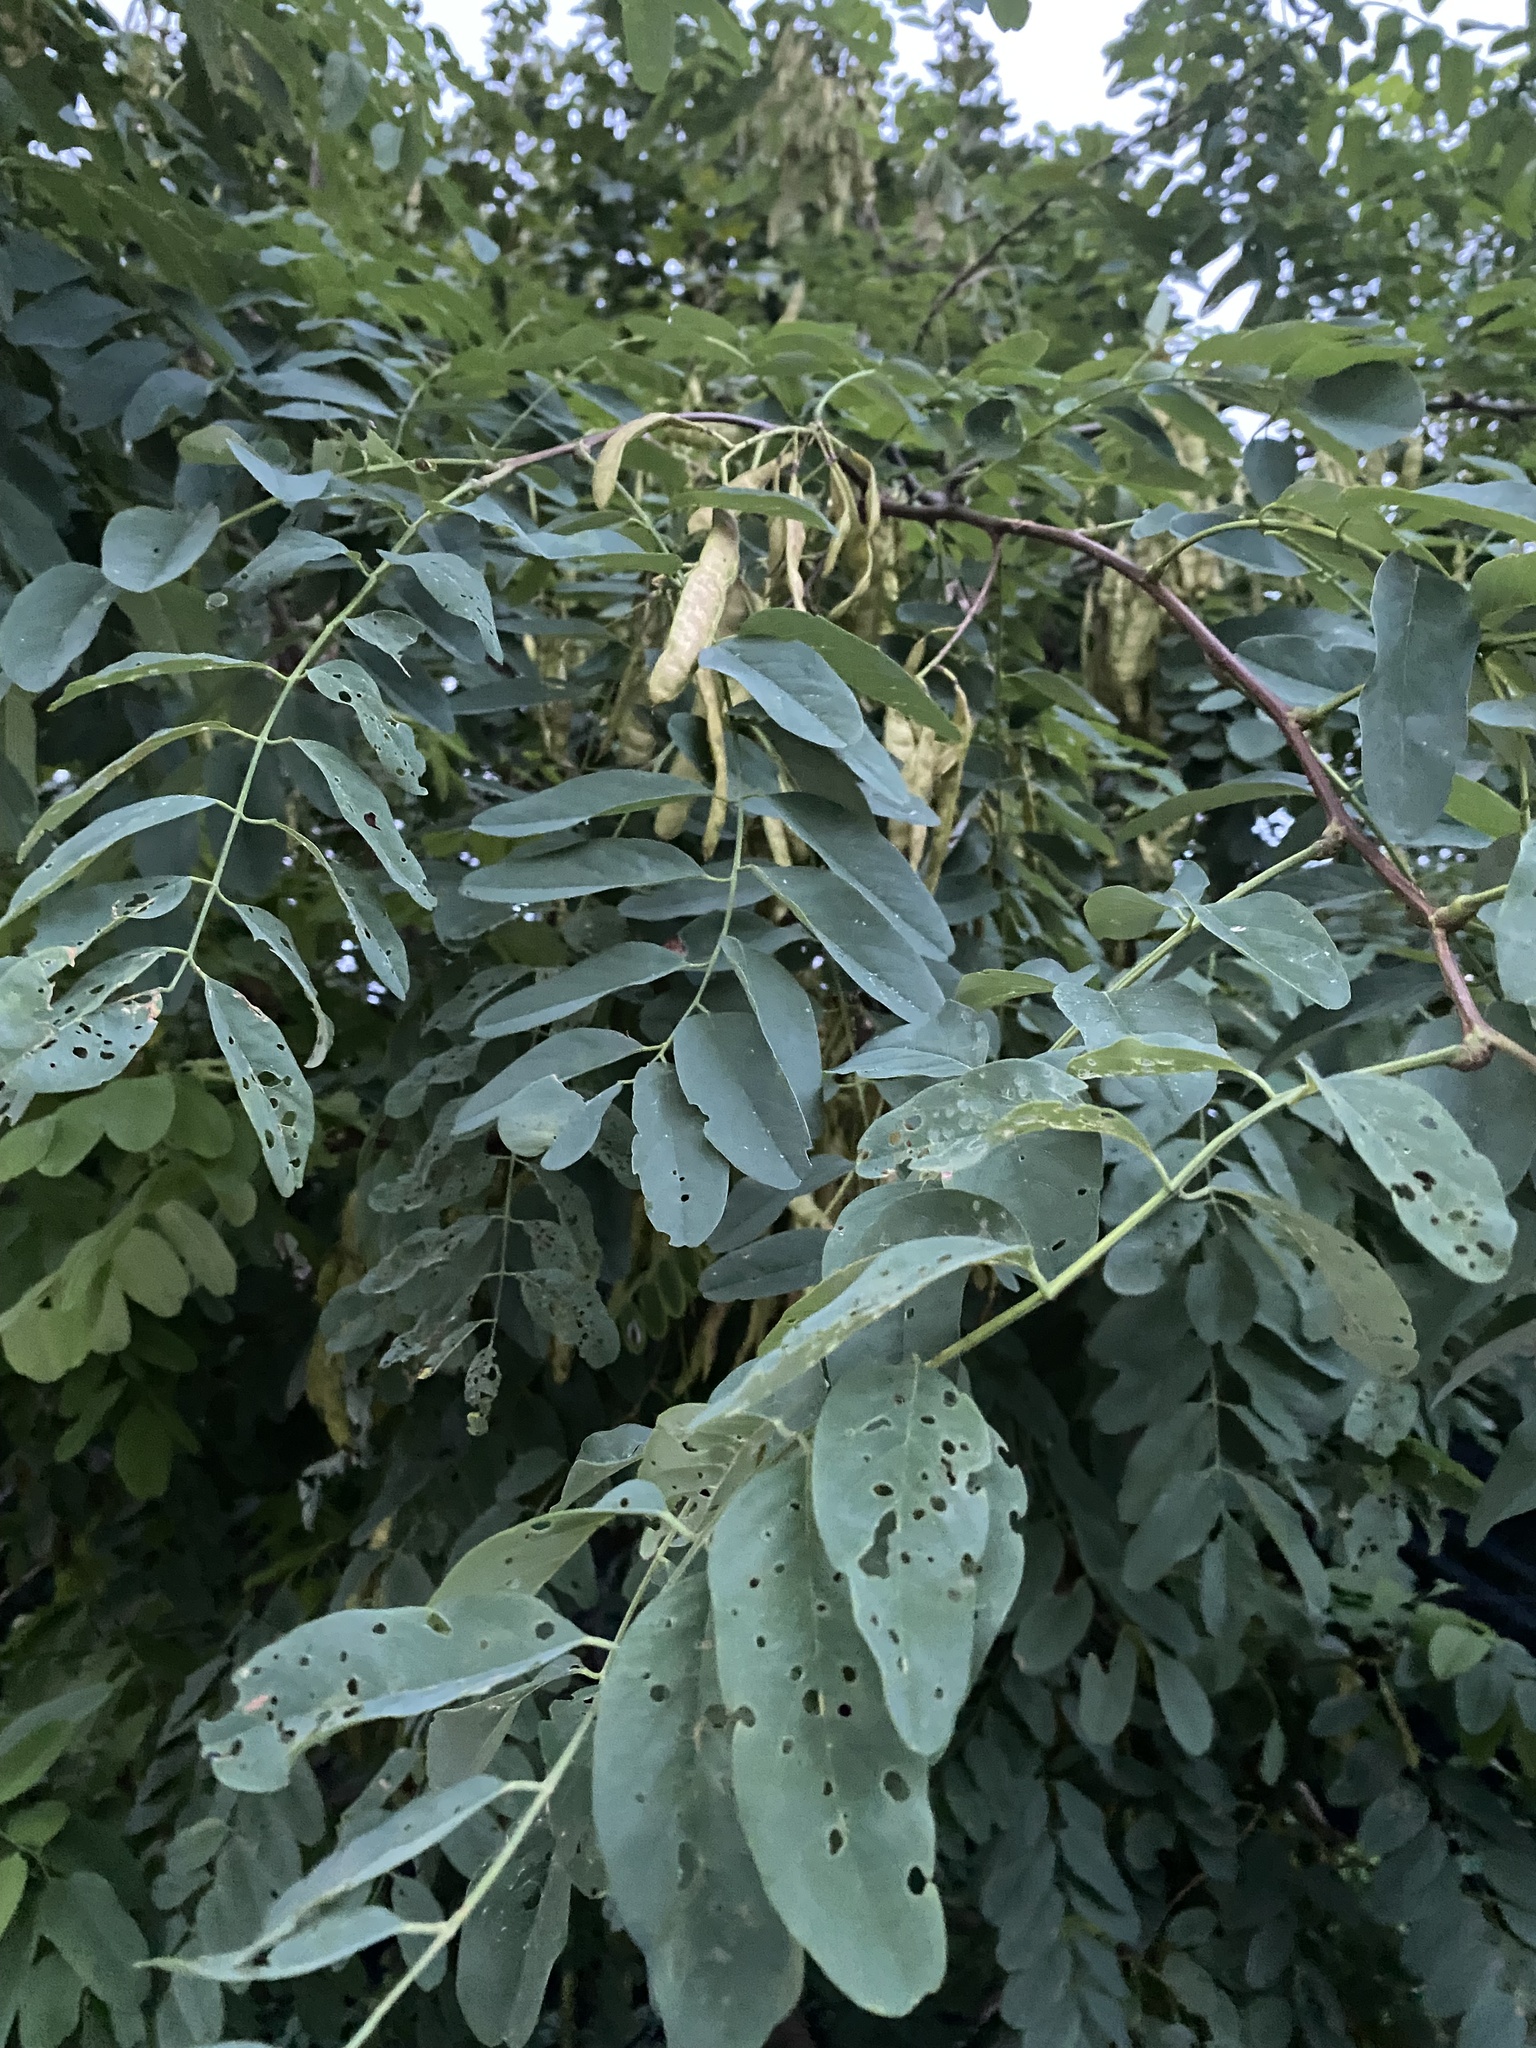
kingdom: Plantae
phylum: Tracheophyta
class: Magnoliopsida
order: Fabales
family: Fabaceae
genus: Robinia
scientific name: Robinia pseudoacacia
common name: Black locust
